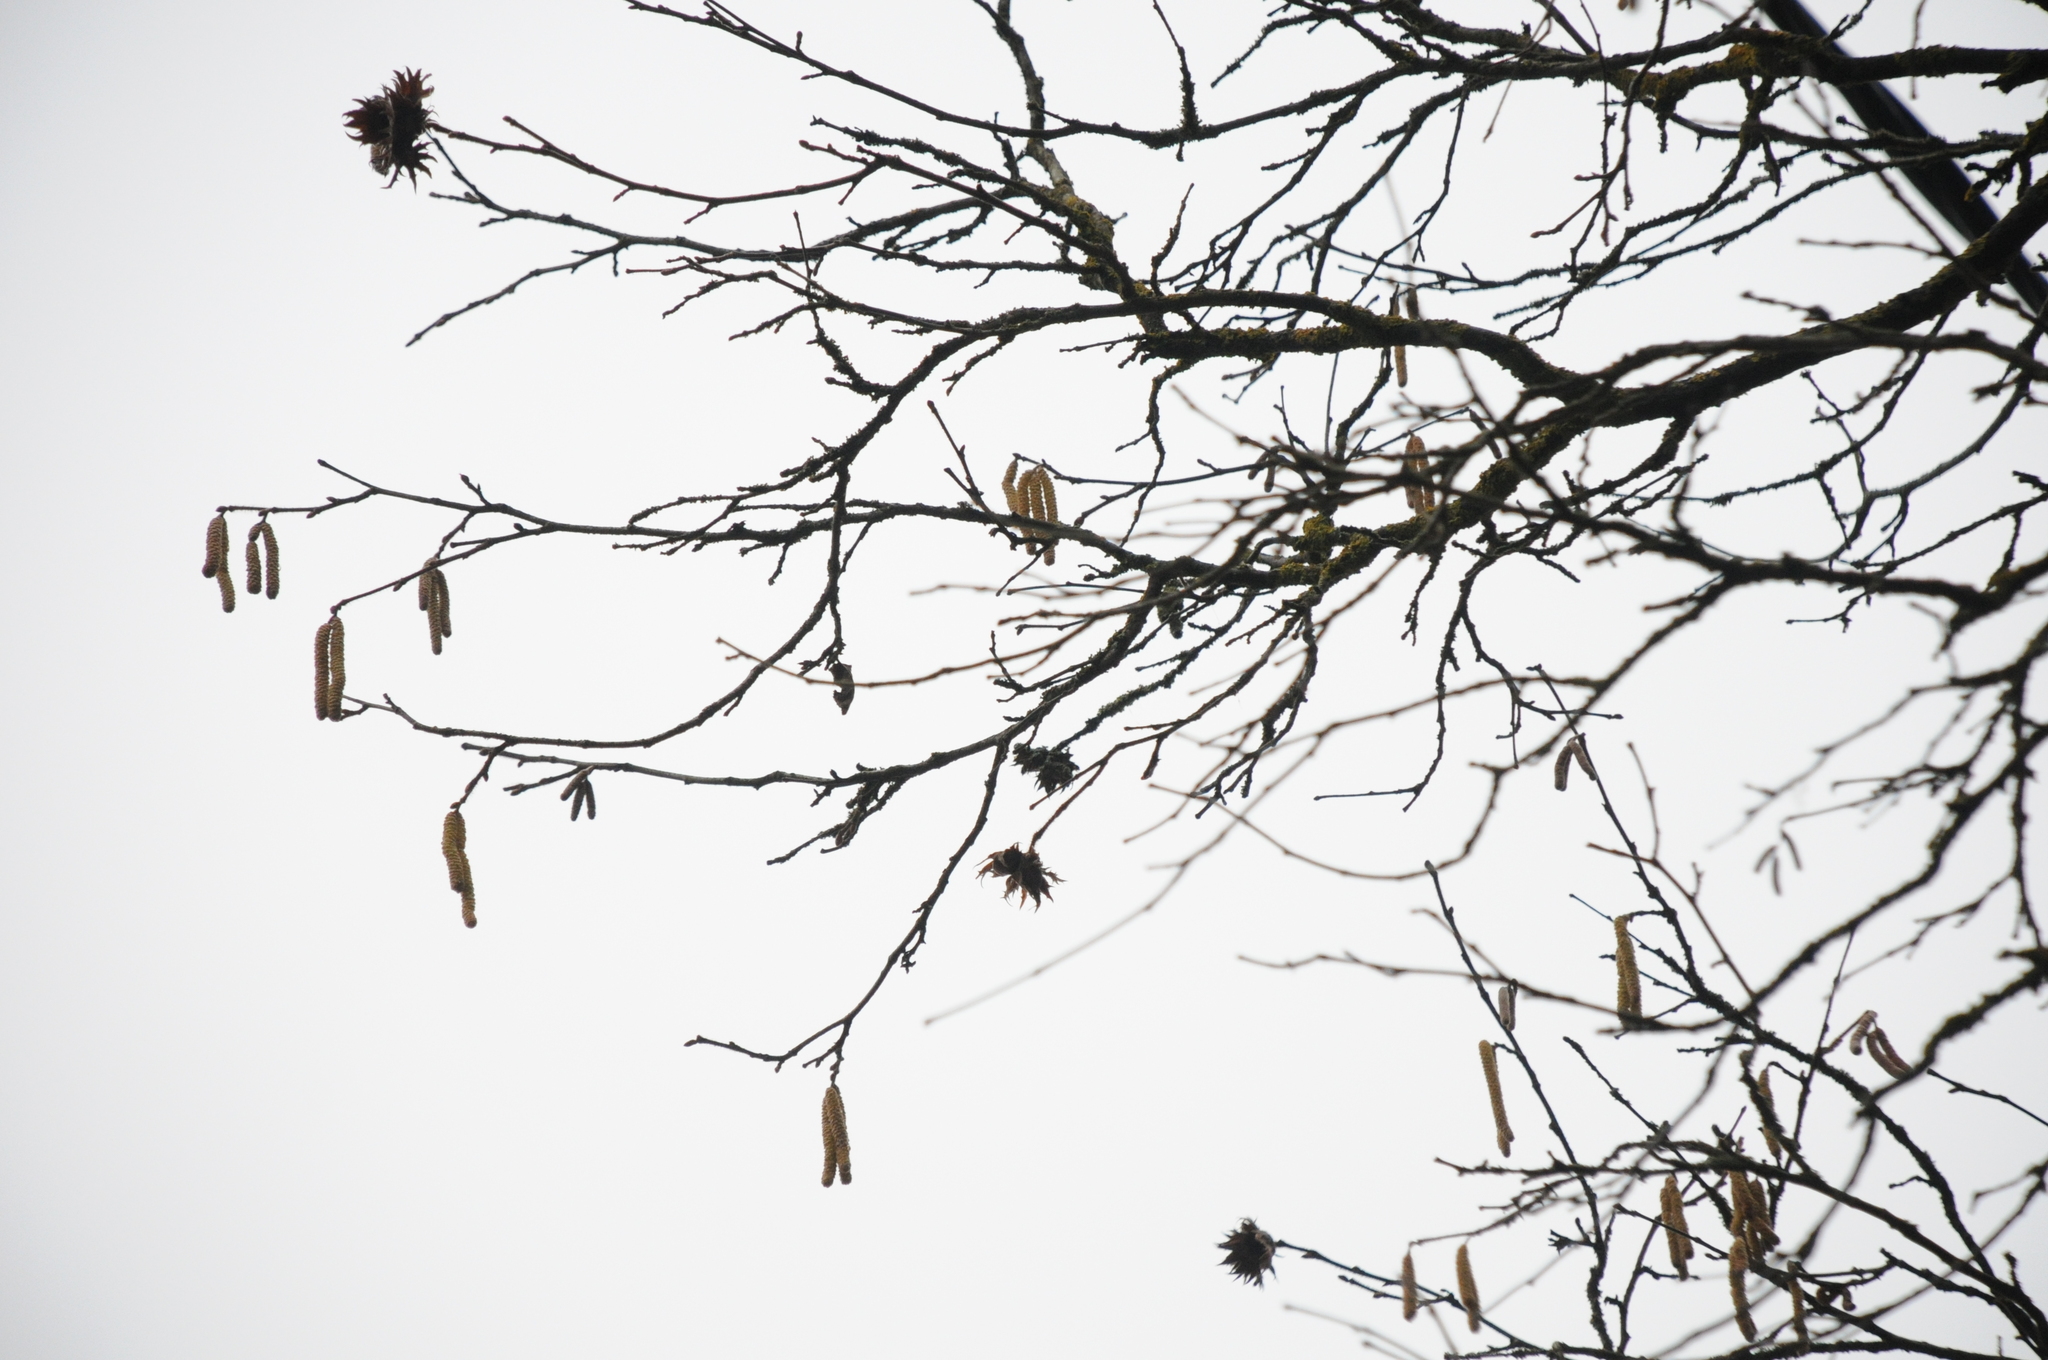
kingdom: Plantae
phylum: Tracheophyta
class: Magnoliopsida
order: Fagales
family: Betulaceae
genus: Corylus
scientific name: Corylus avellana
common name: European hazel
